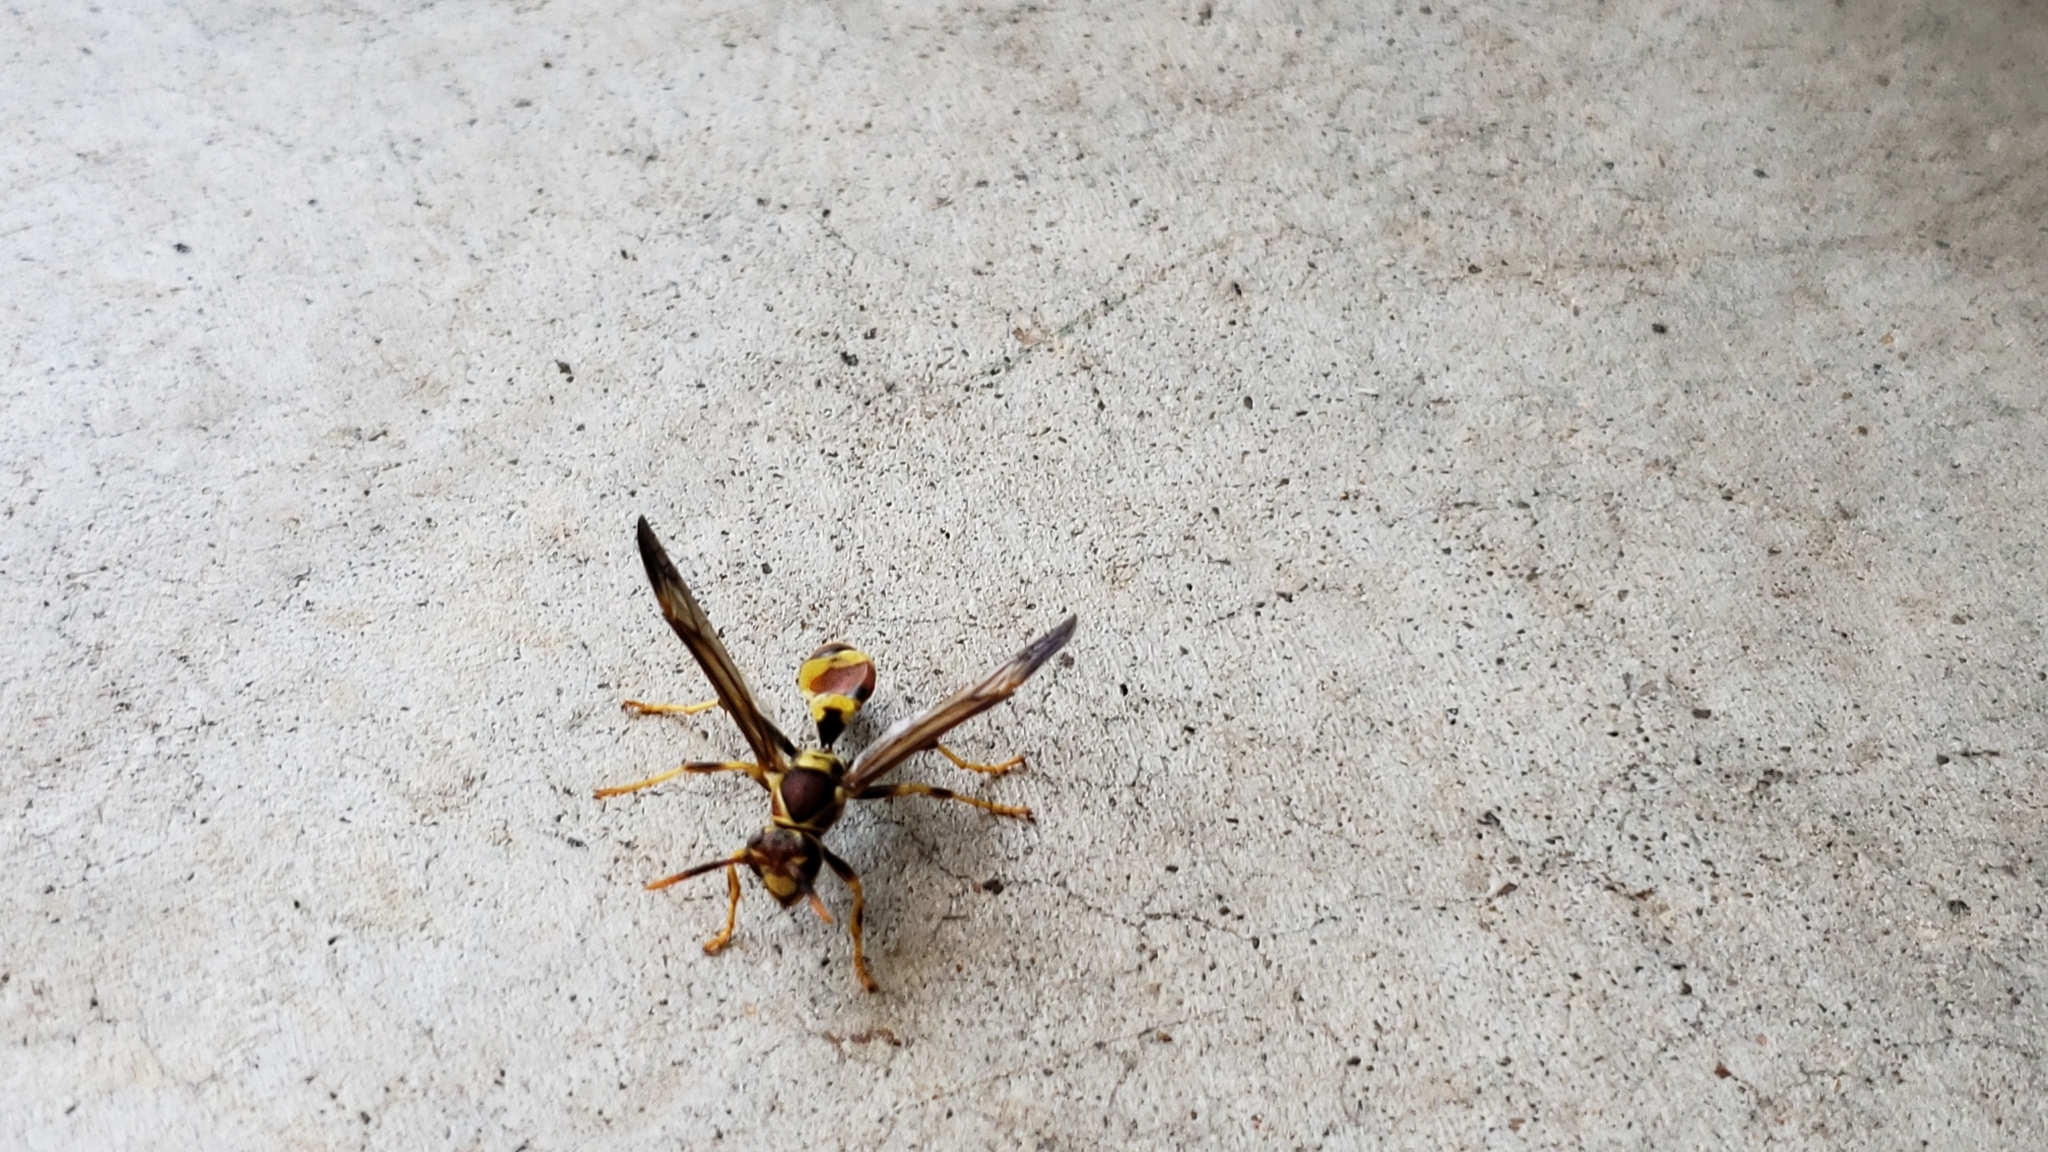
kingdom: Animalia
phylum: Arthropoda
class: Insecta
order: Hymenoptera
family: Eumenidae
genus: Polistes
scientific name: Polistes exclamans
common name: Paper wasp
